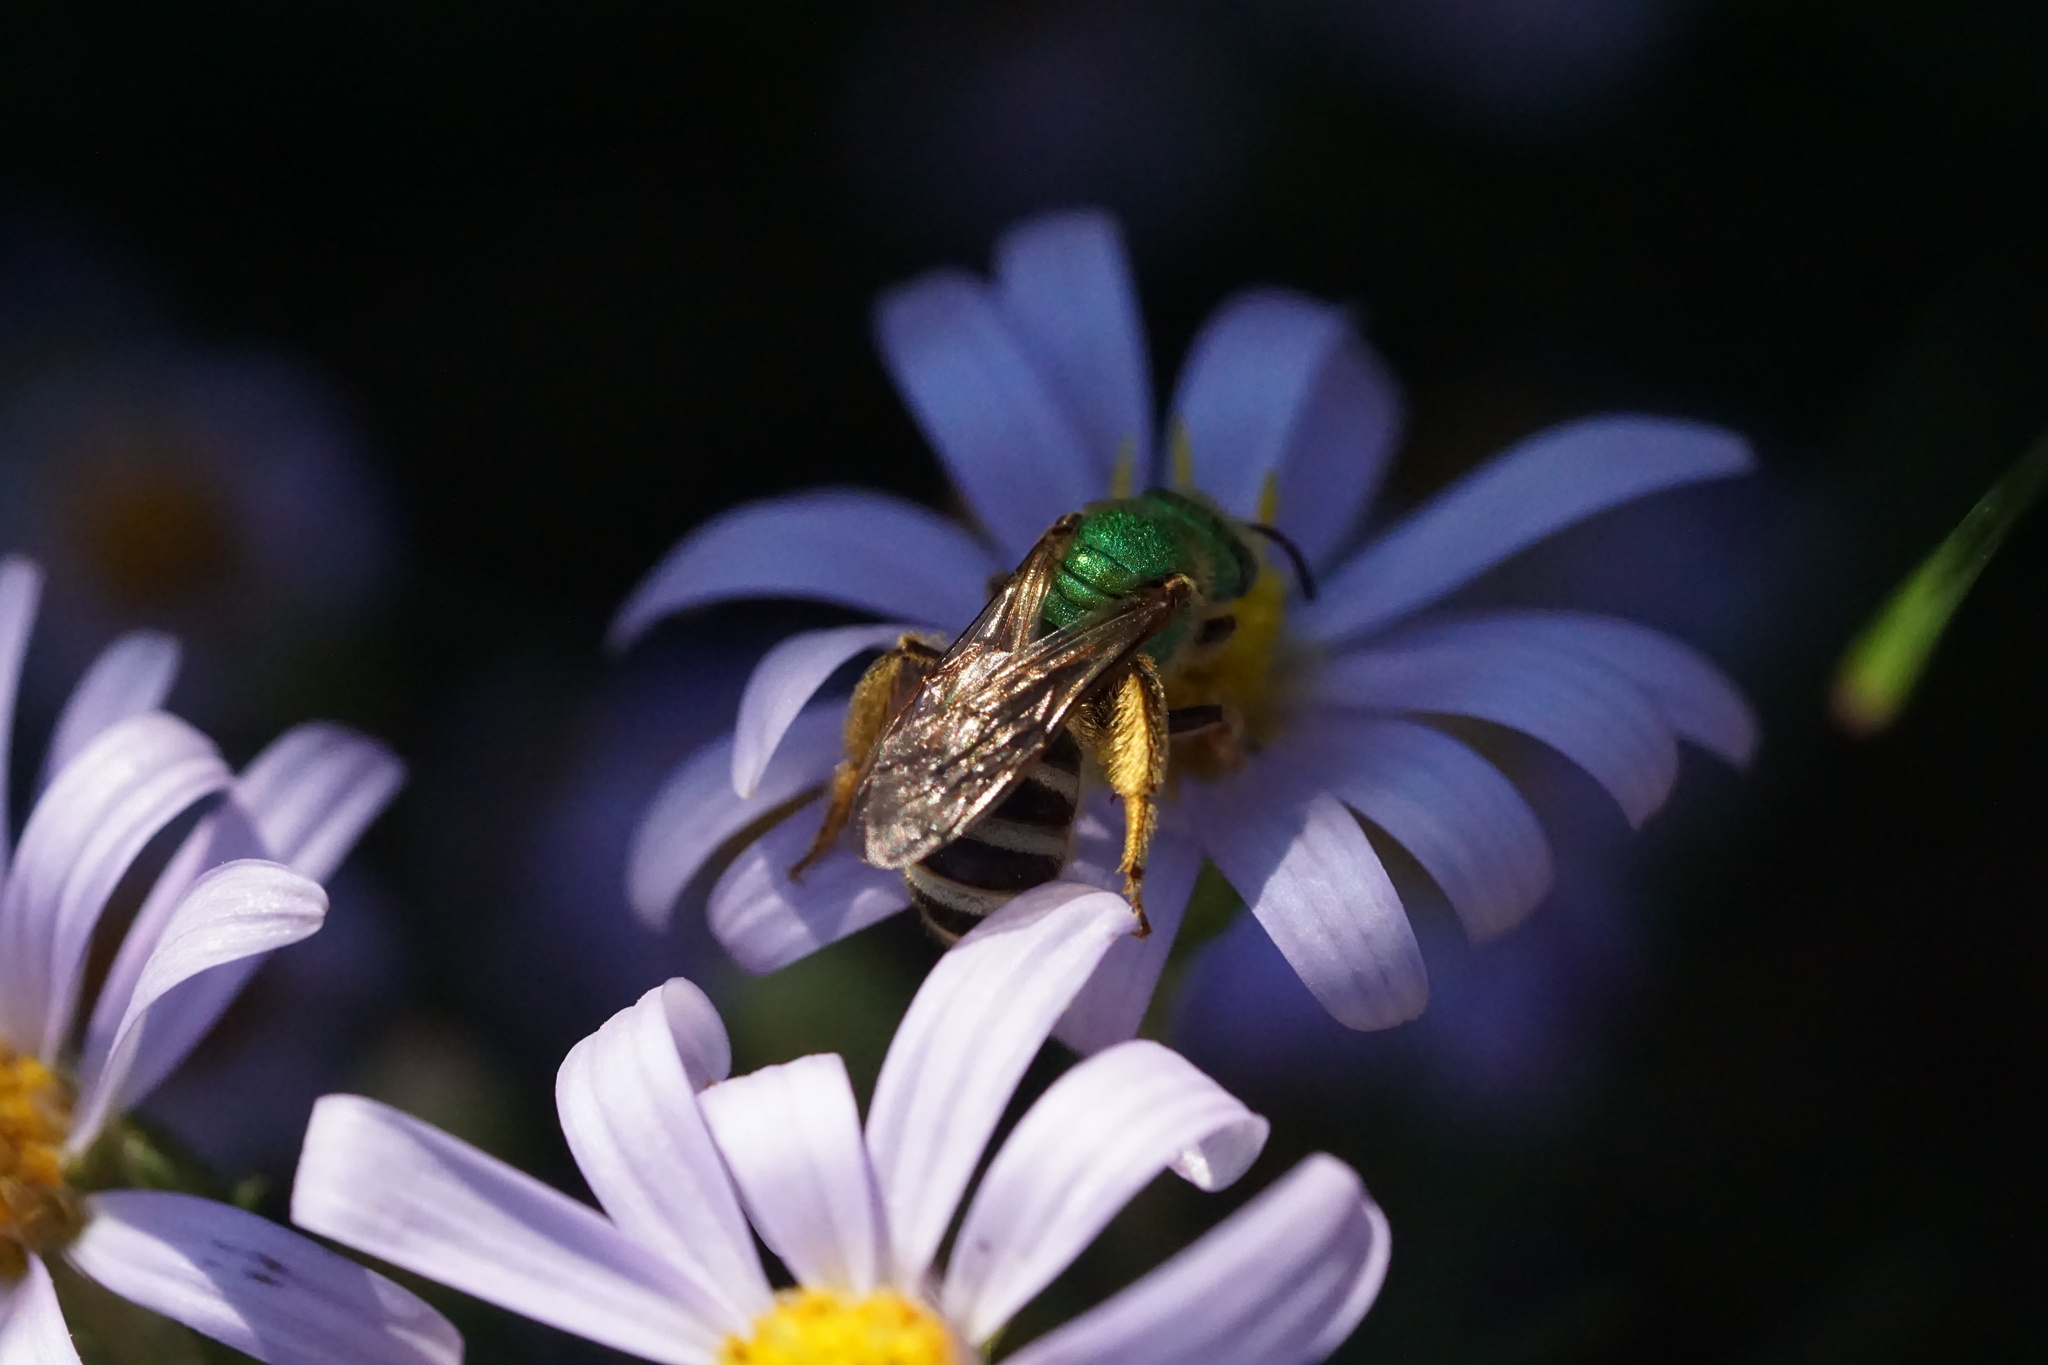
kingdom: Animalia
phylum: Arthropoda
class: Insecta
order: Hymenoptera
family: Halictidae
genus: Agapostemon
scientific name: Agapostemon virescens
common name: Bicolored striped sweat bee
